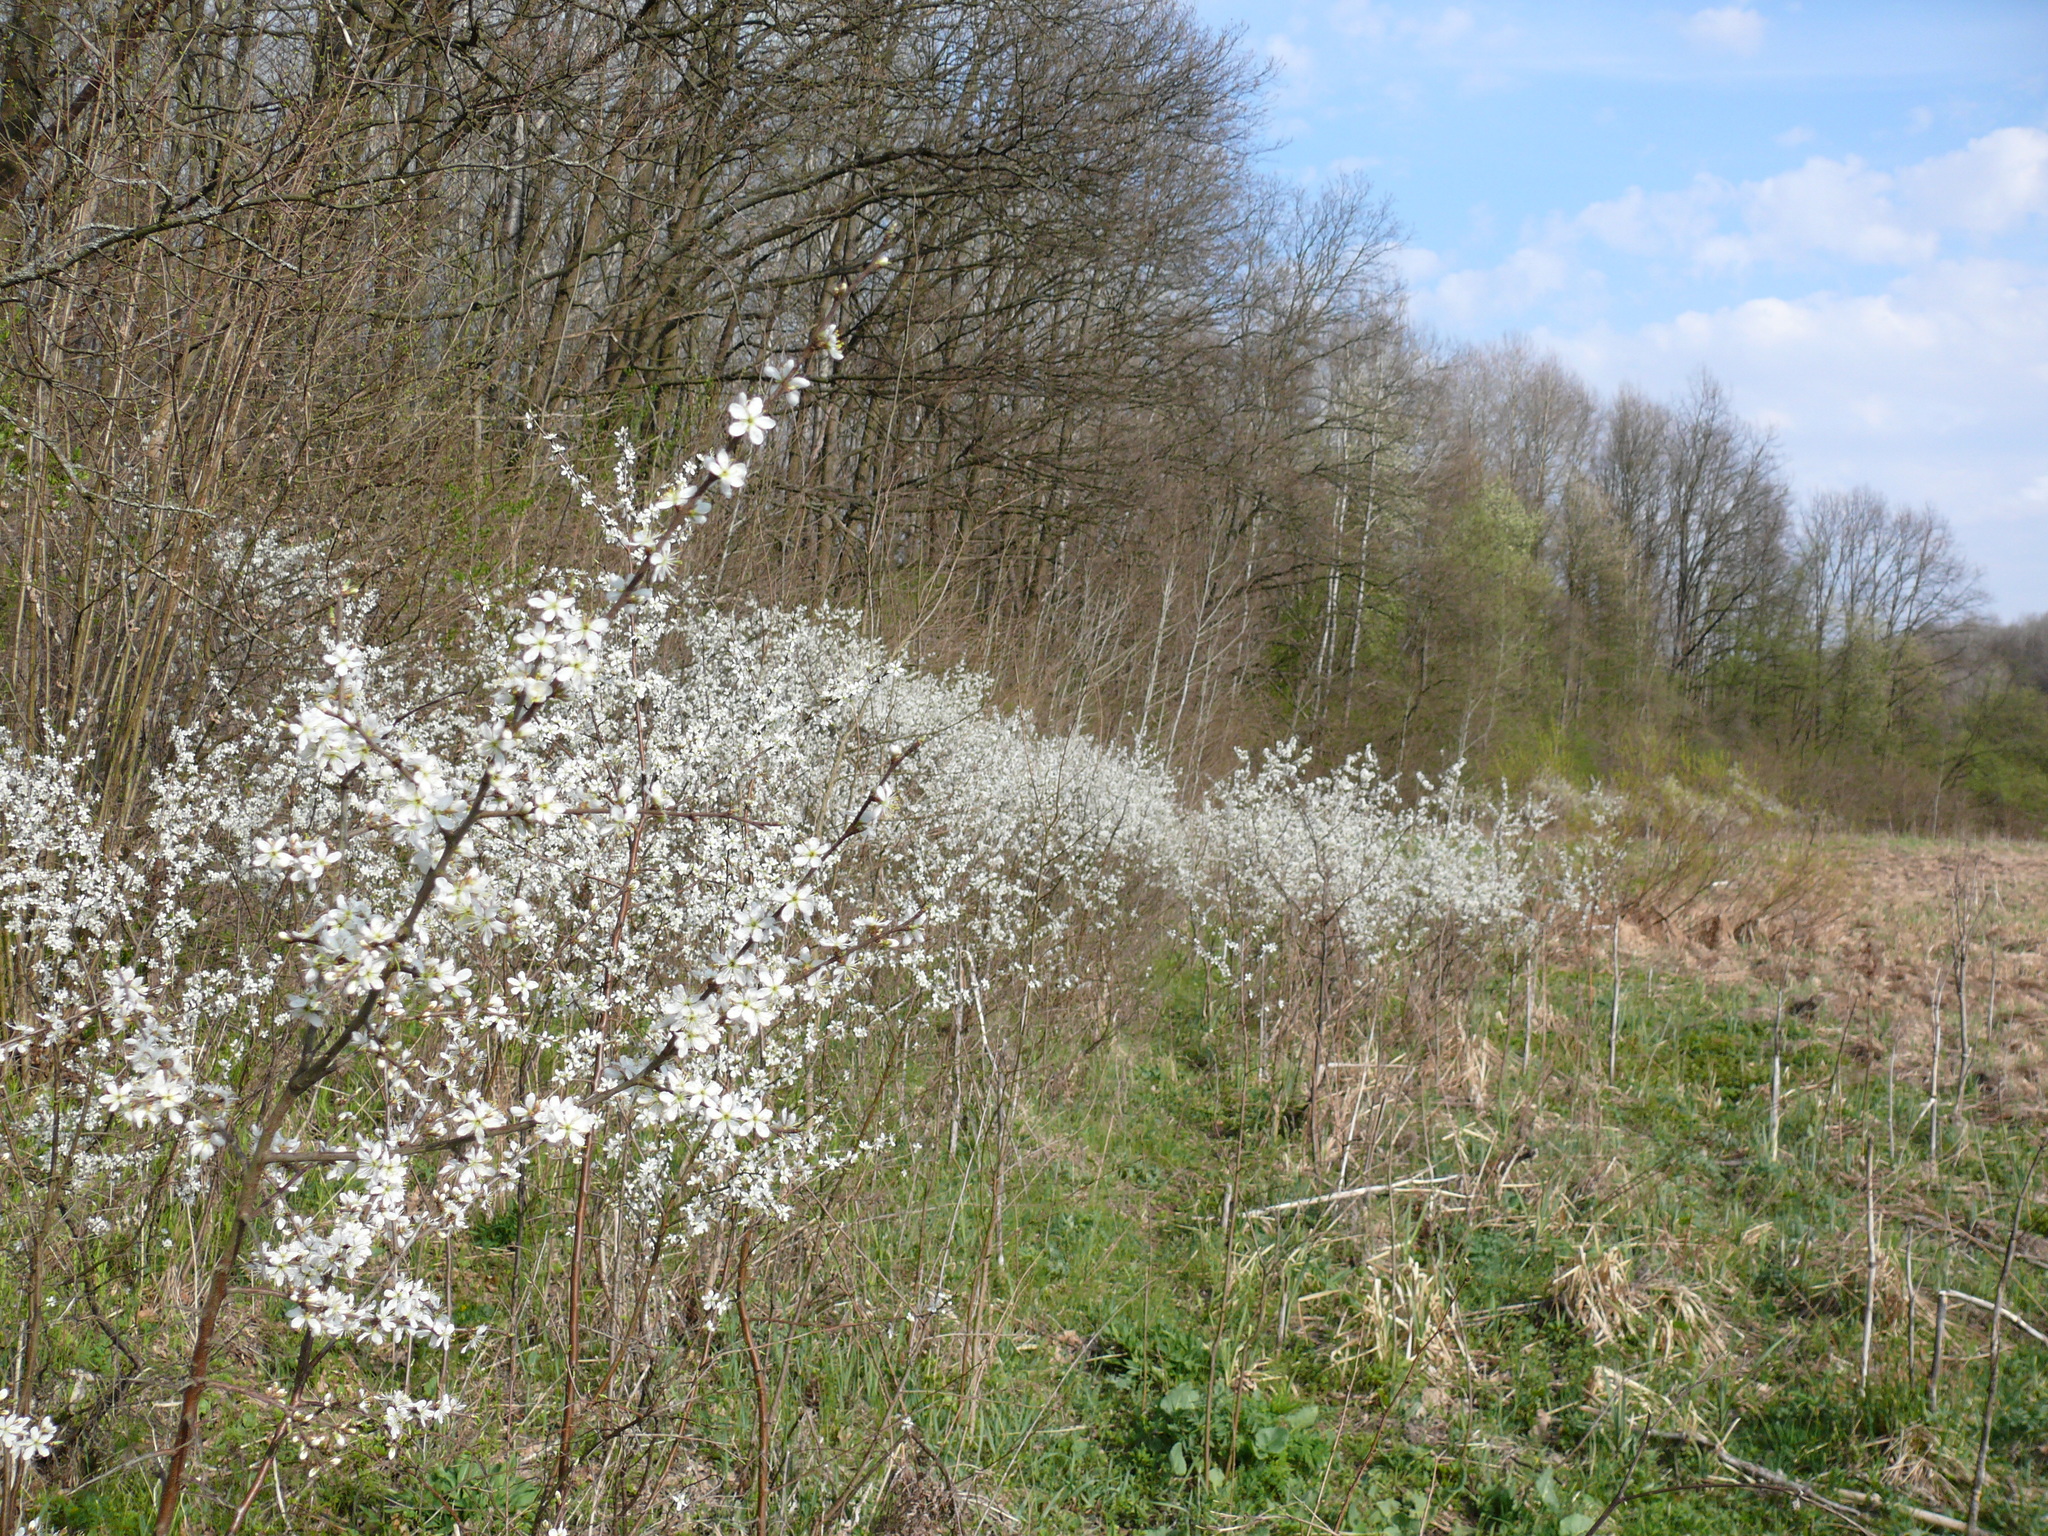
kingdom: Plantae
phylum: Tracheophyta
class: Magnoliopsida
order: Rosales
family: Rosaceae
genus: Prunus
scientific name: Prunus spinosa
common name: Blackthorn
